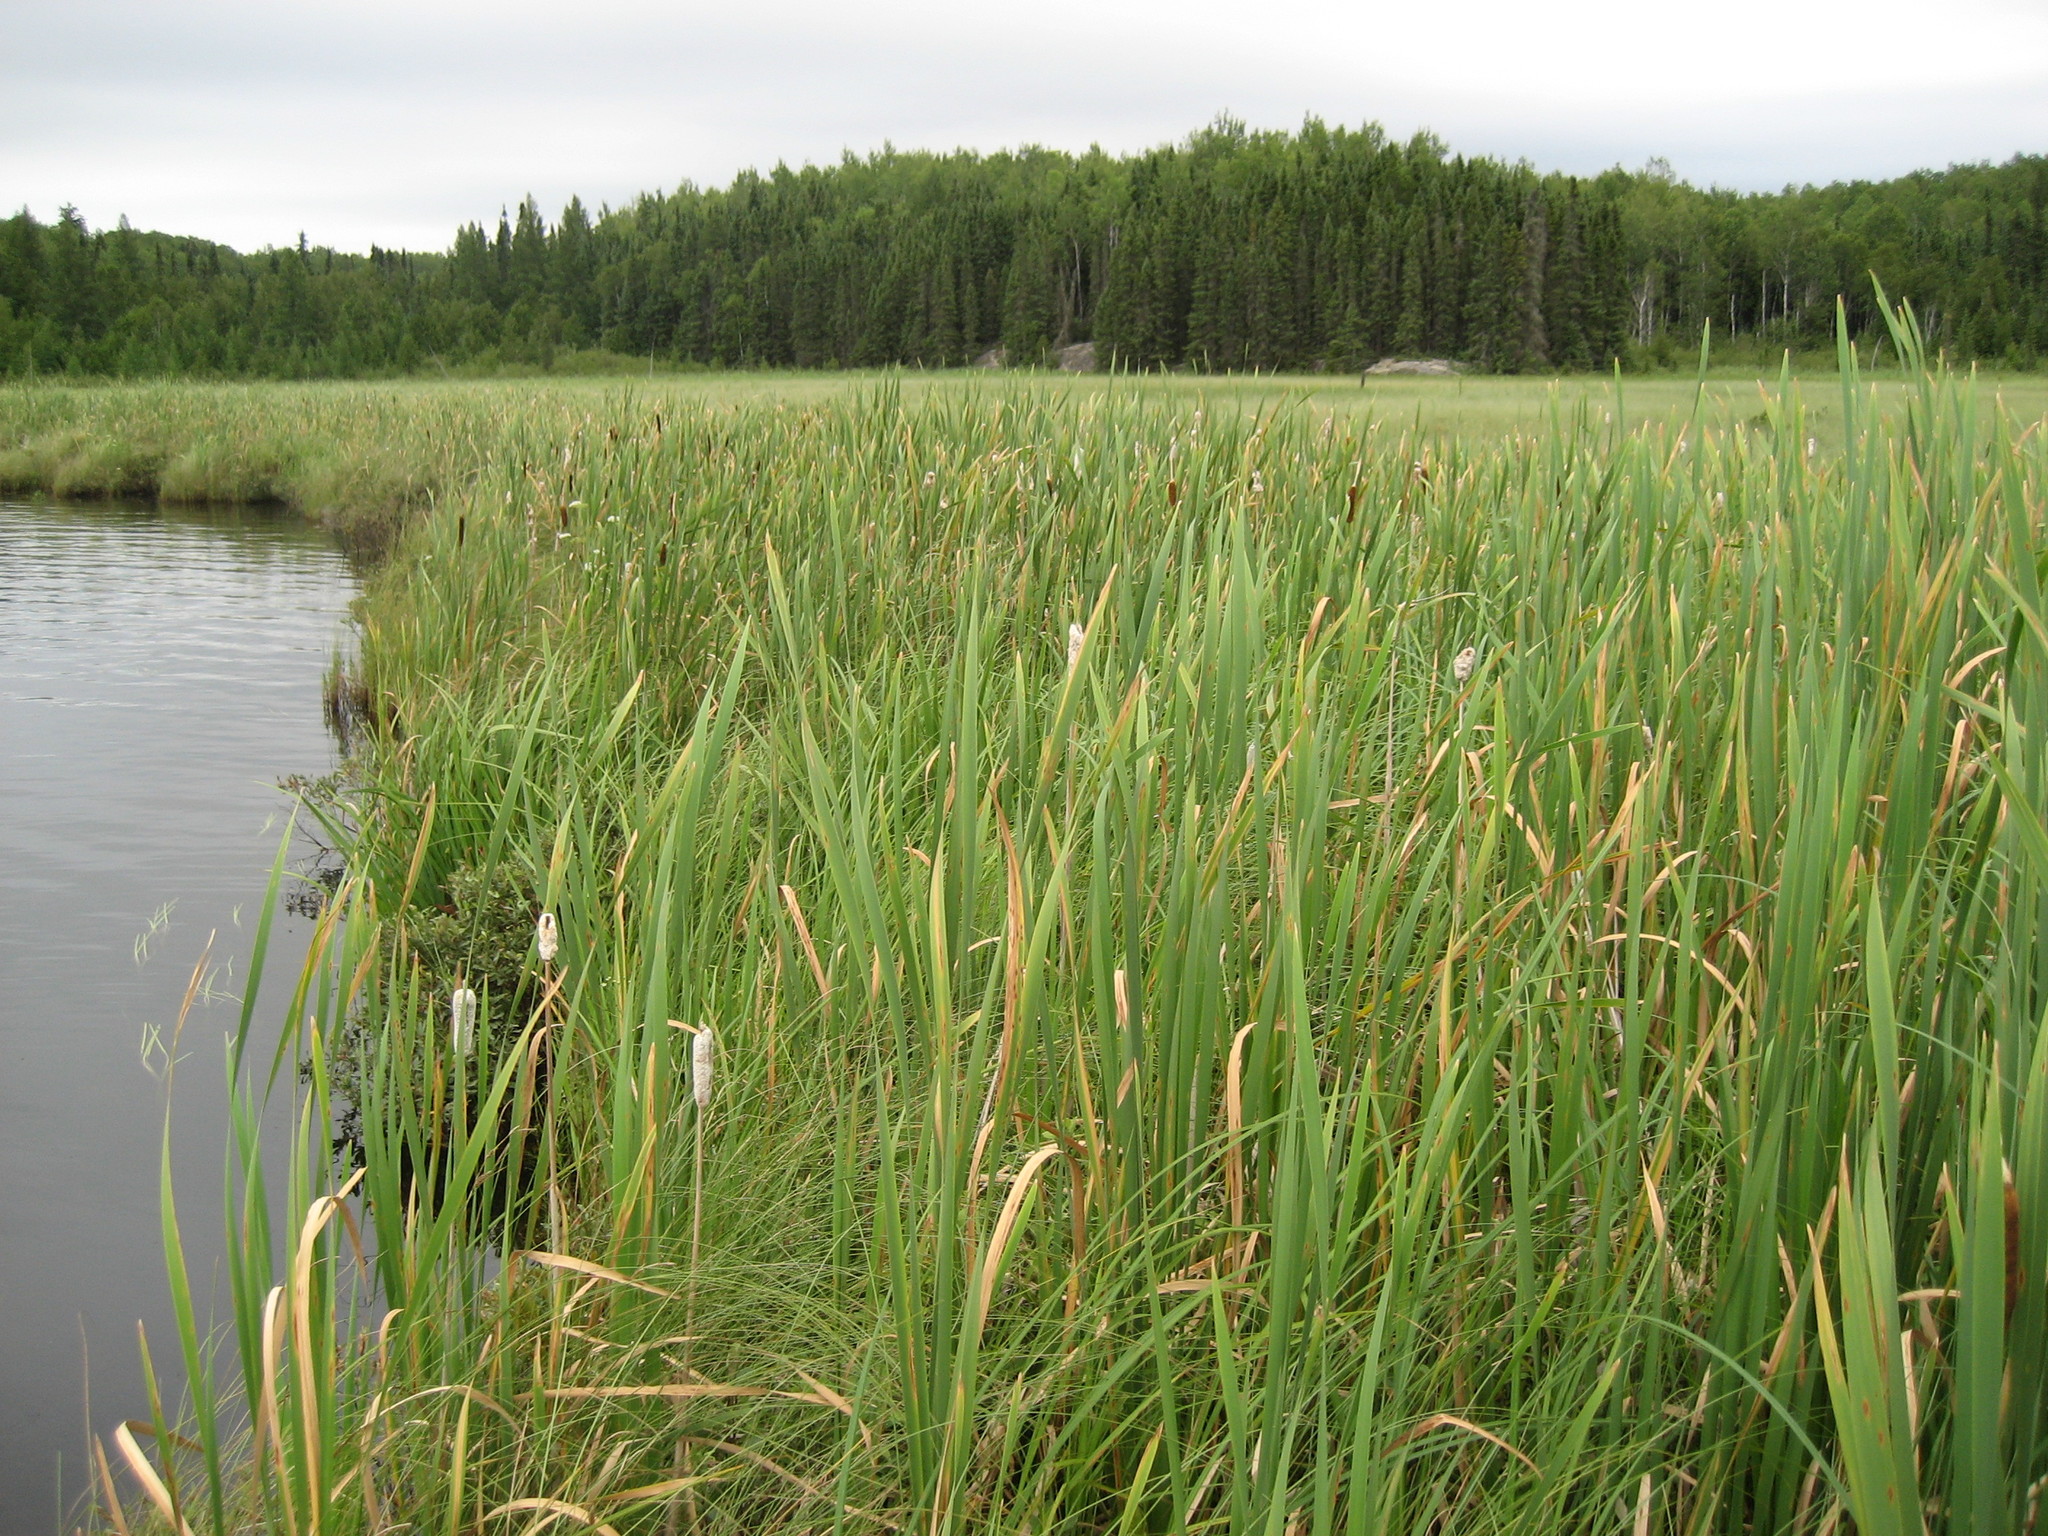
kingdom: Plantae
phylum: Tracheophyta
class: Liliopsida
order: Poales
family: Typhaceae
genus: Typha
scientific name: Typha latifolia
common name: Broadleaf cattail
